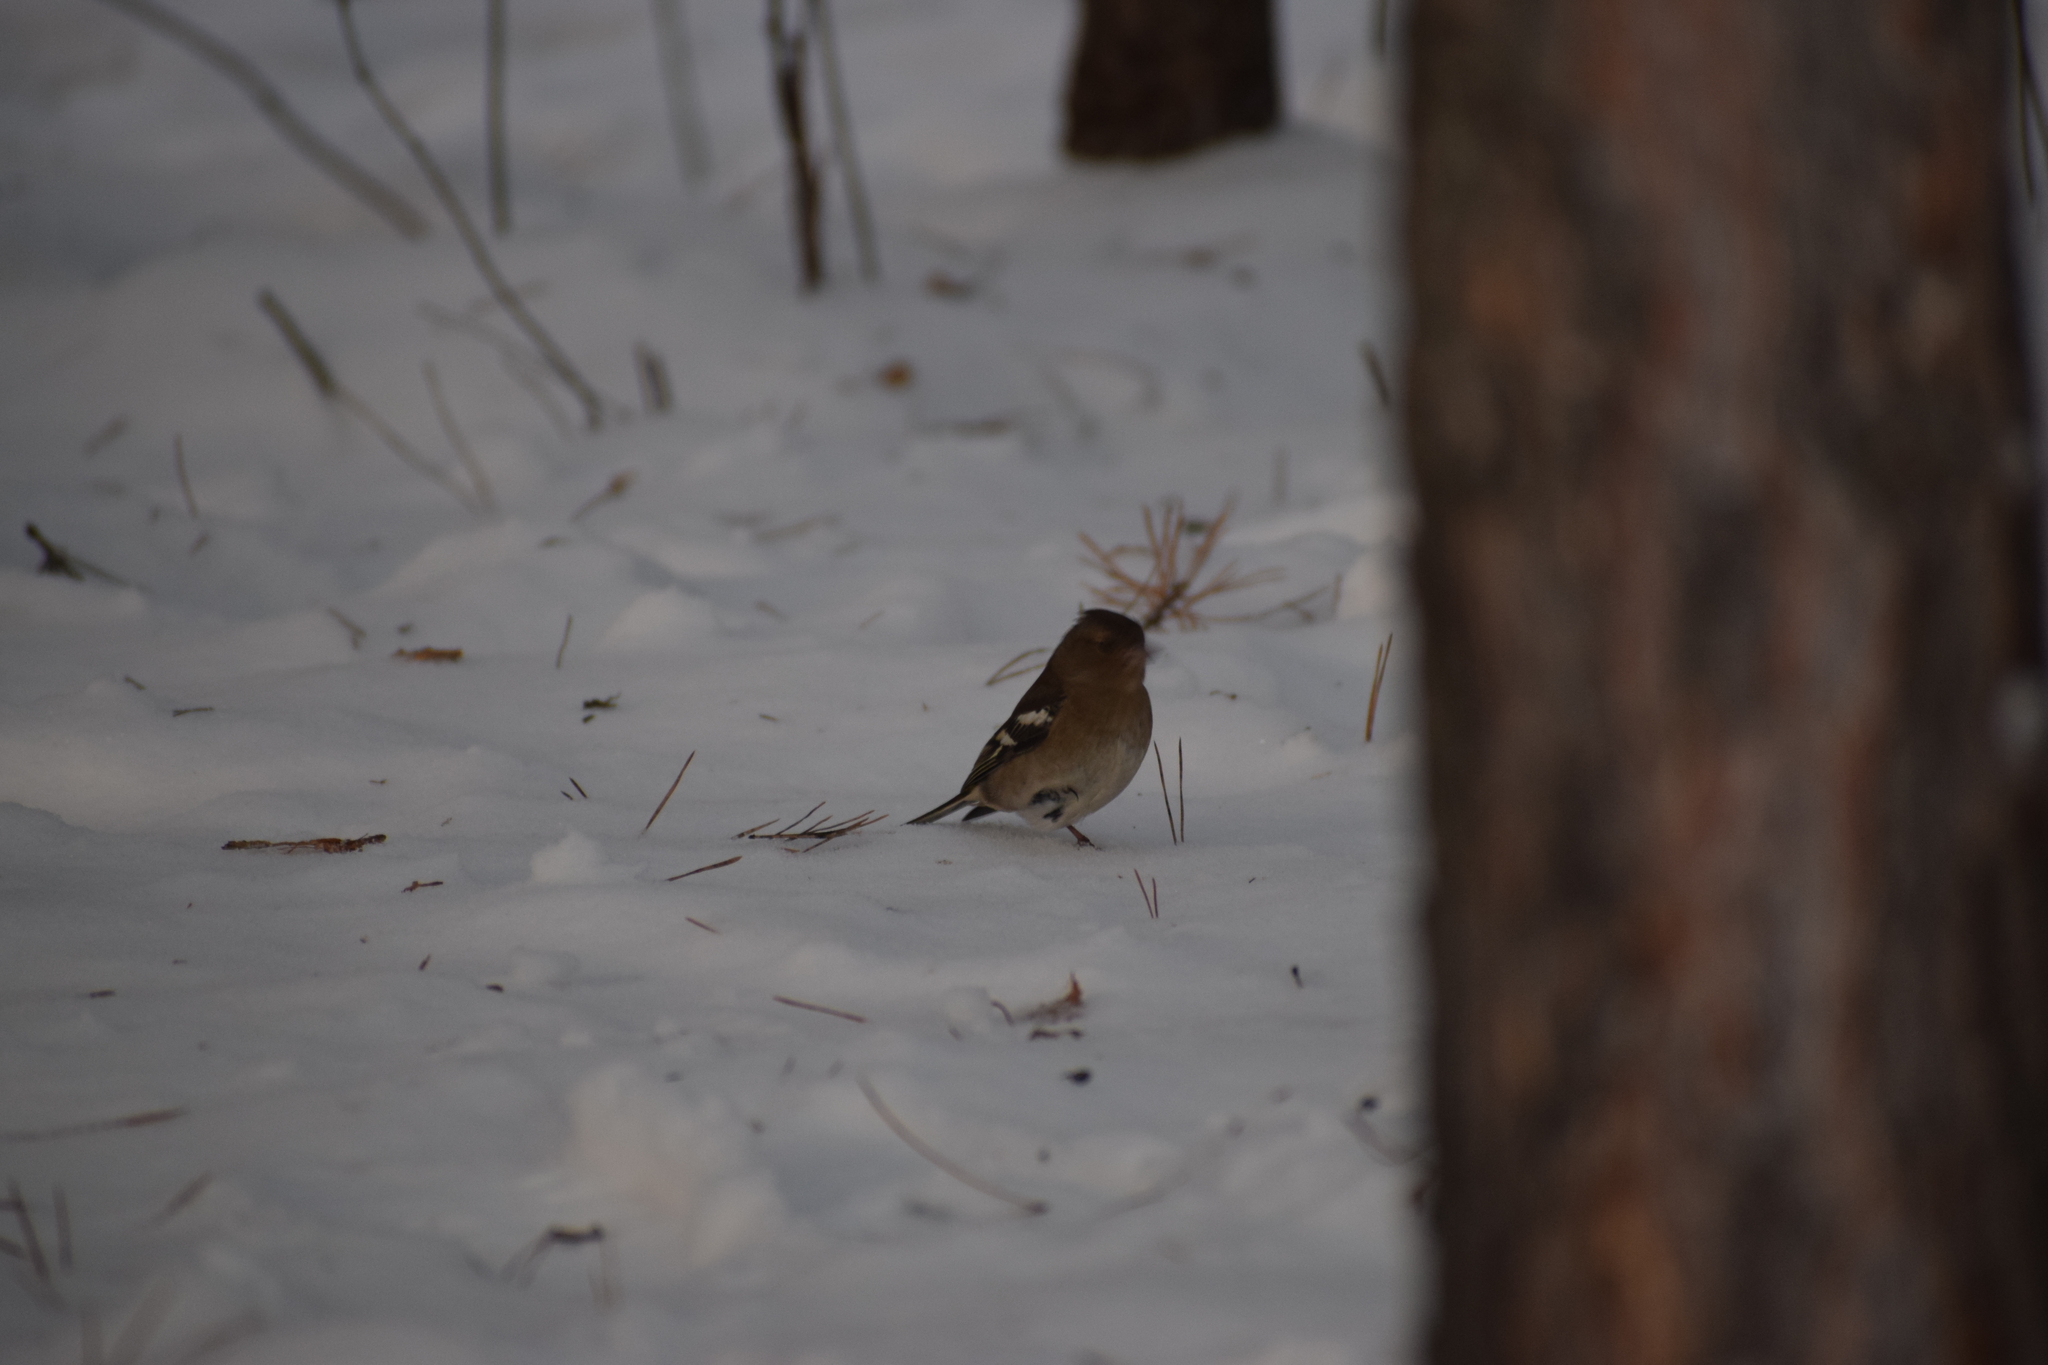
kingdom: Animalia
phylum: Chordata
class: Aves
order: Passeriformes
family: Fringillidae
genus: Fringilla
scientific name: Fringilla coelebs
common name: Common chaffinch
